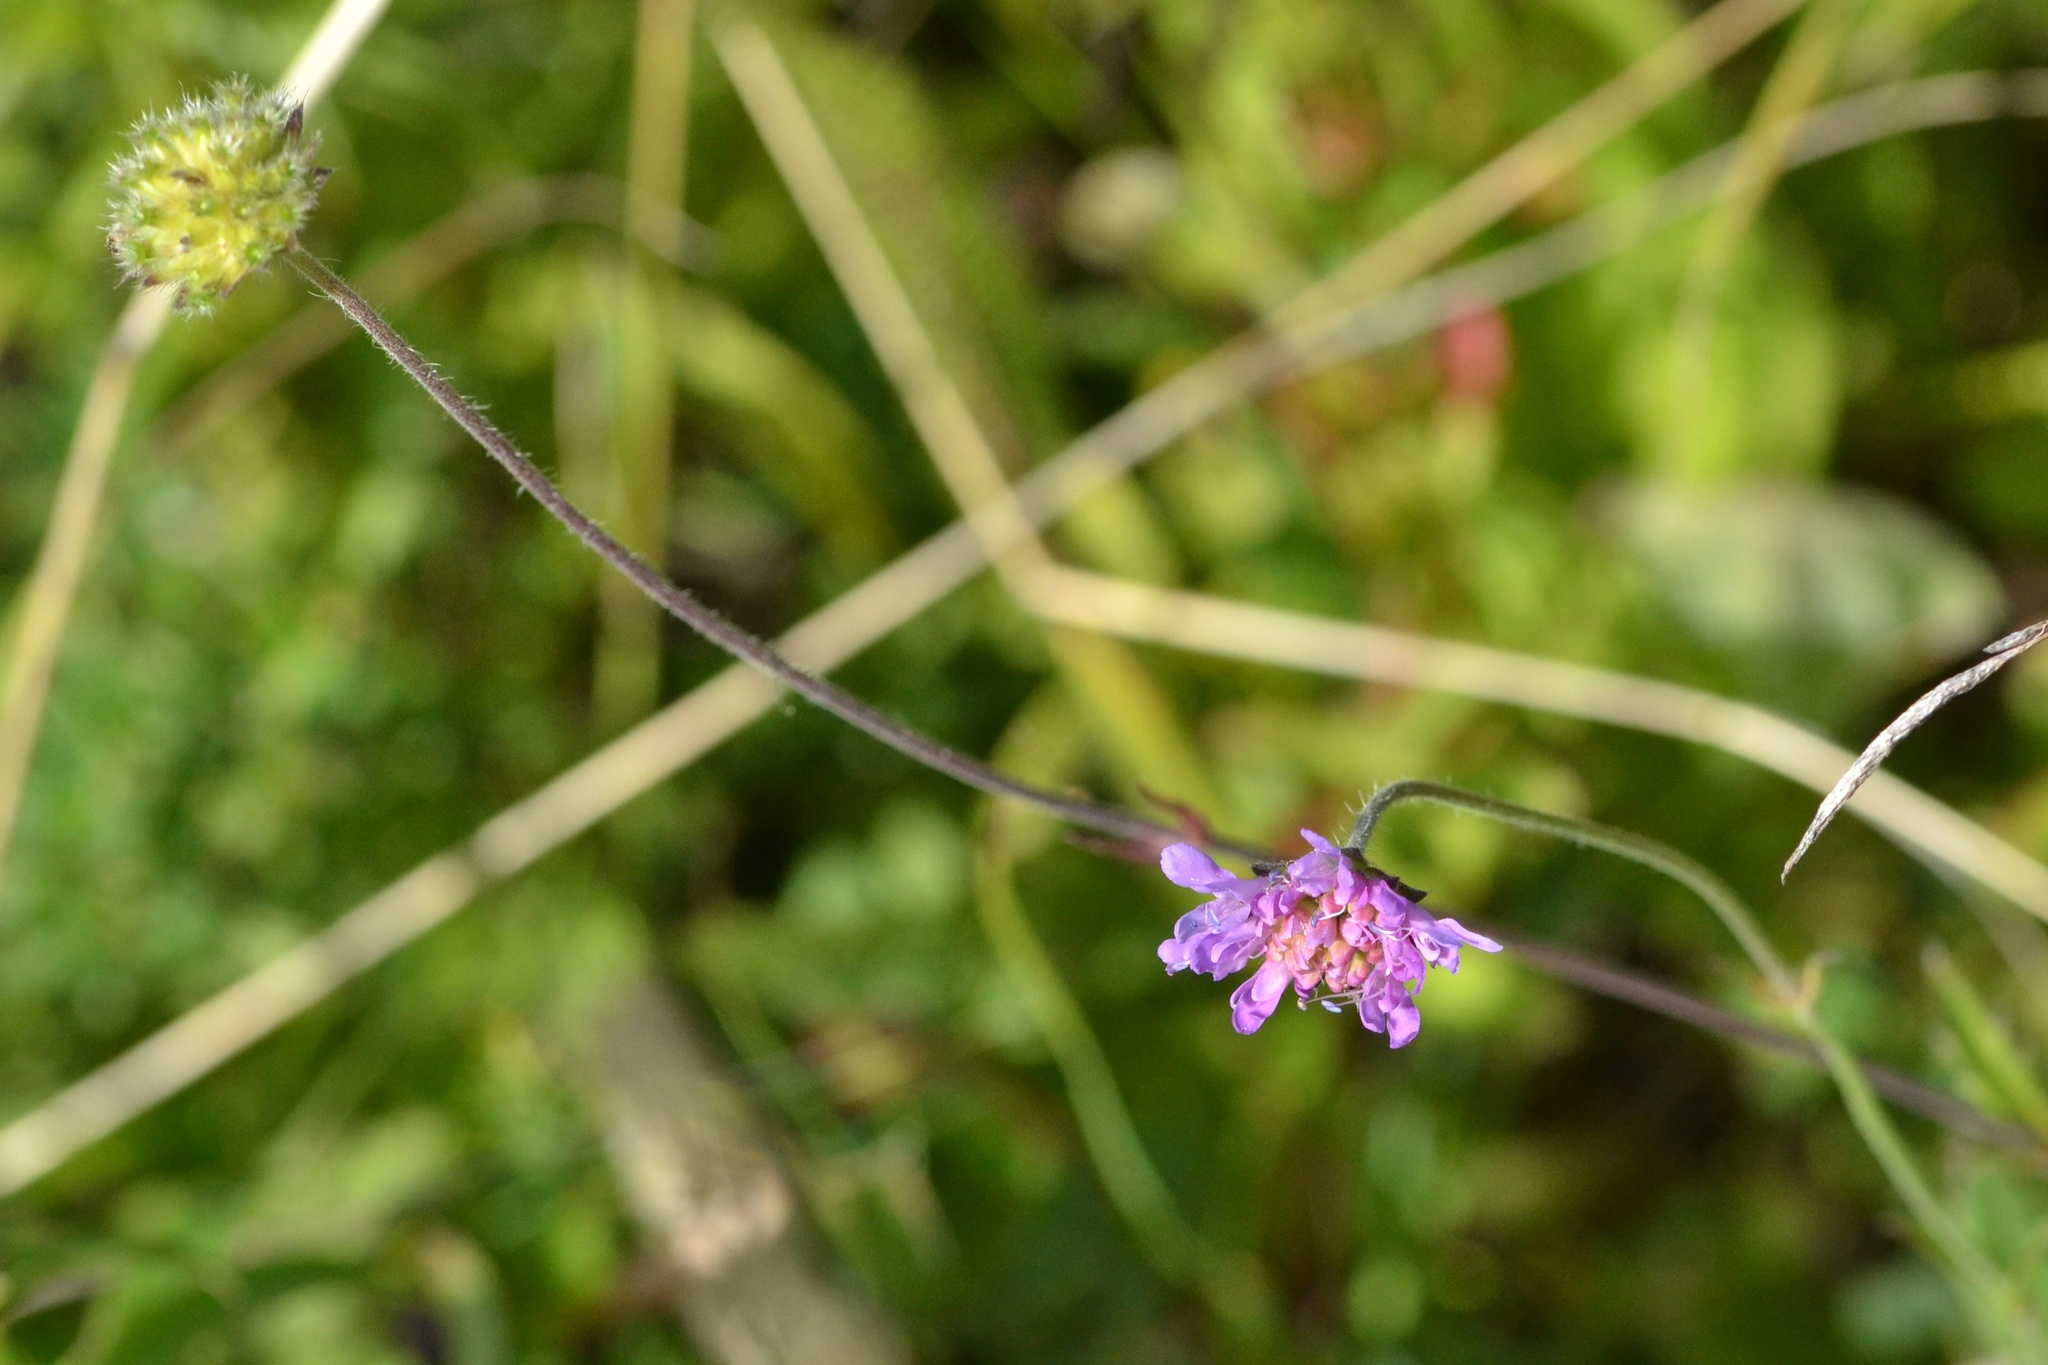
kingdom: Plantae
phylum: Tracheophyta
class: Magnoliopsida
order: Dipsacales
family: Caprifoliaceae
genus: Knautia
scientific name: Knautia arvensis
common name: Field scabiosa
